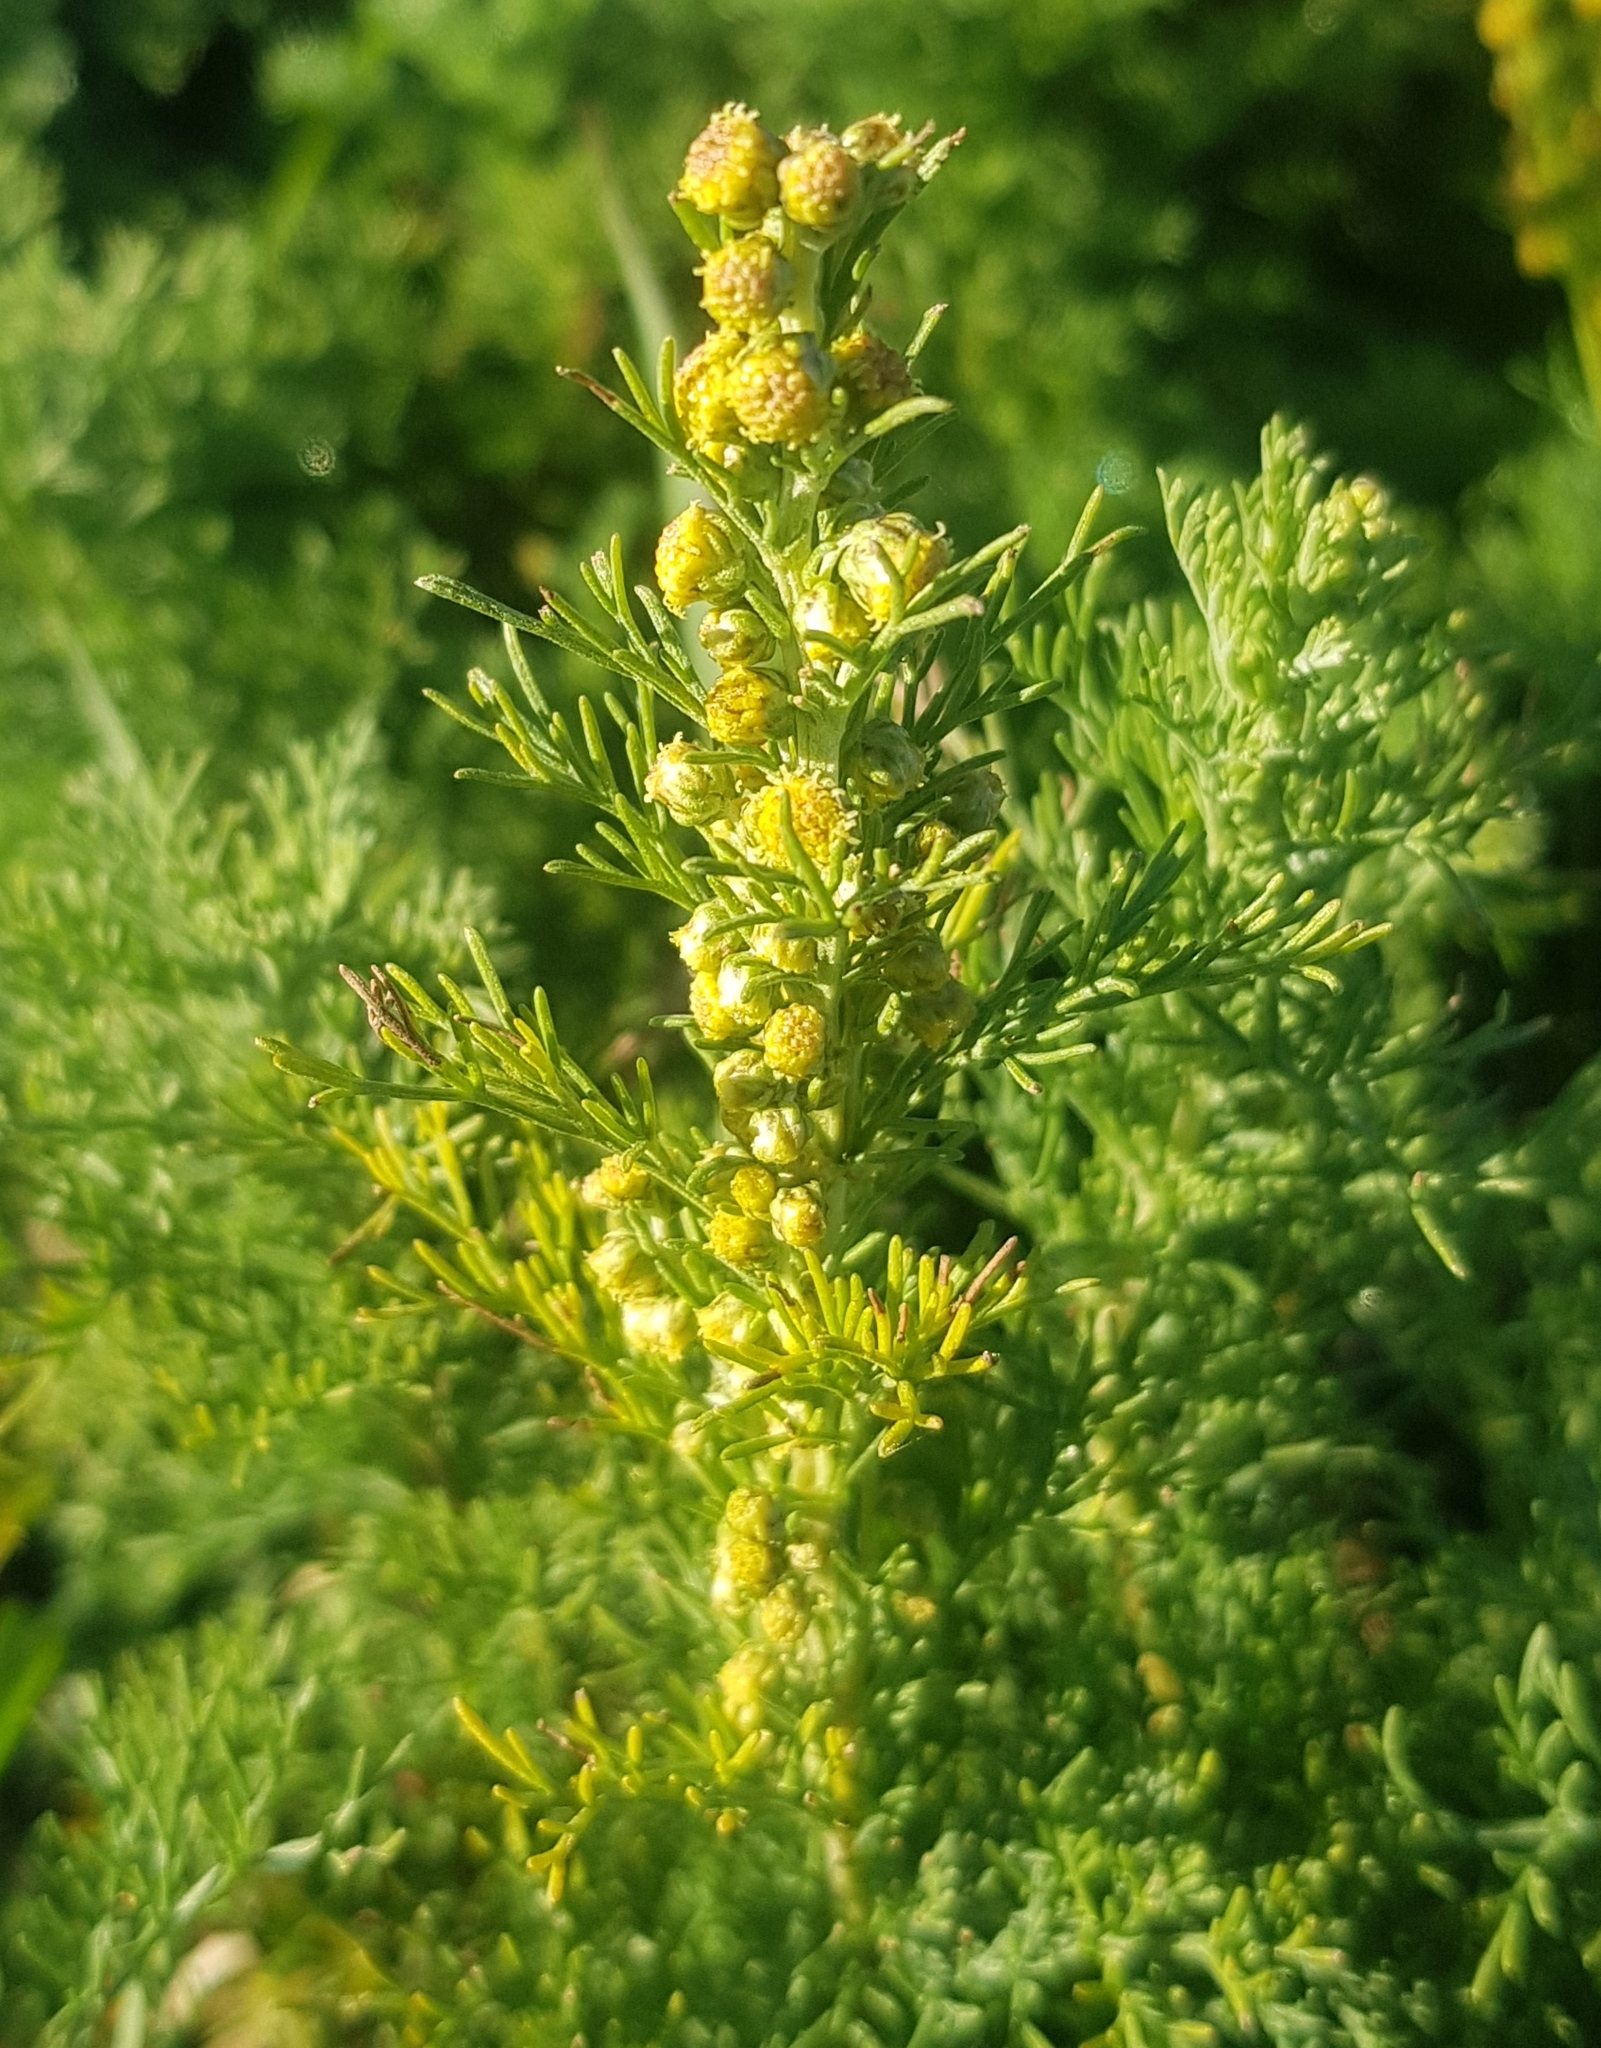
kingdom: Plantae
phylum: Tracheophyta
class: Magnoliopsida
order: Asterales
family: Asteraceae
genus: Artemisia
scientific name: Artemisia adamsii
